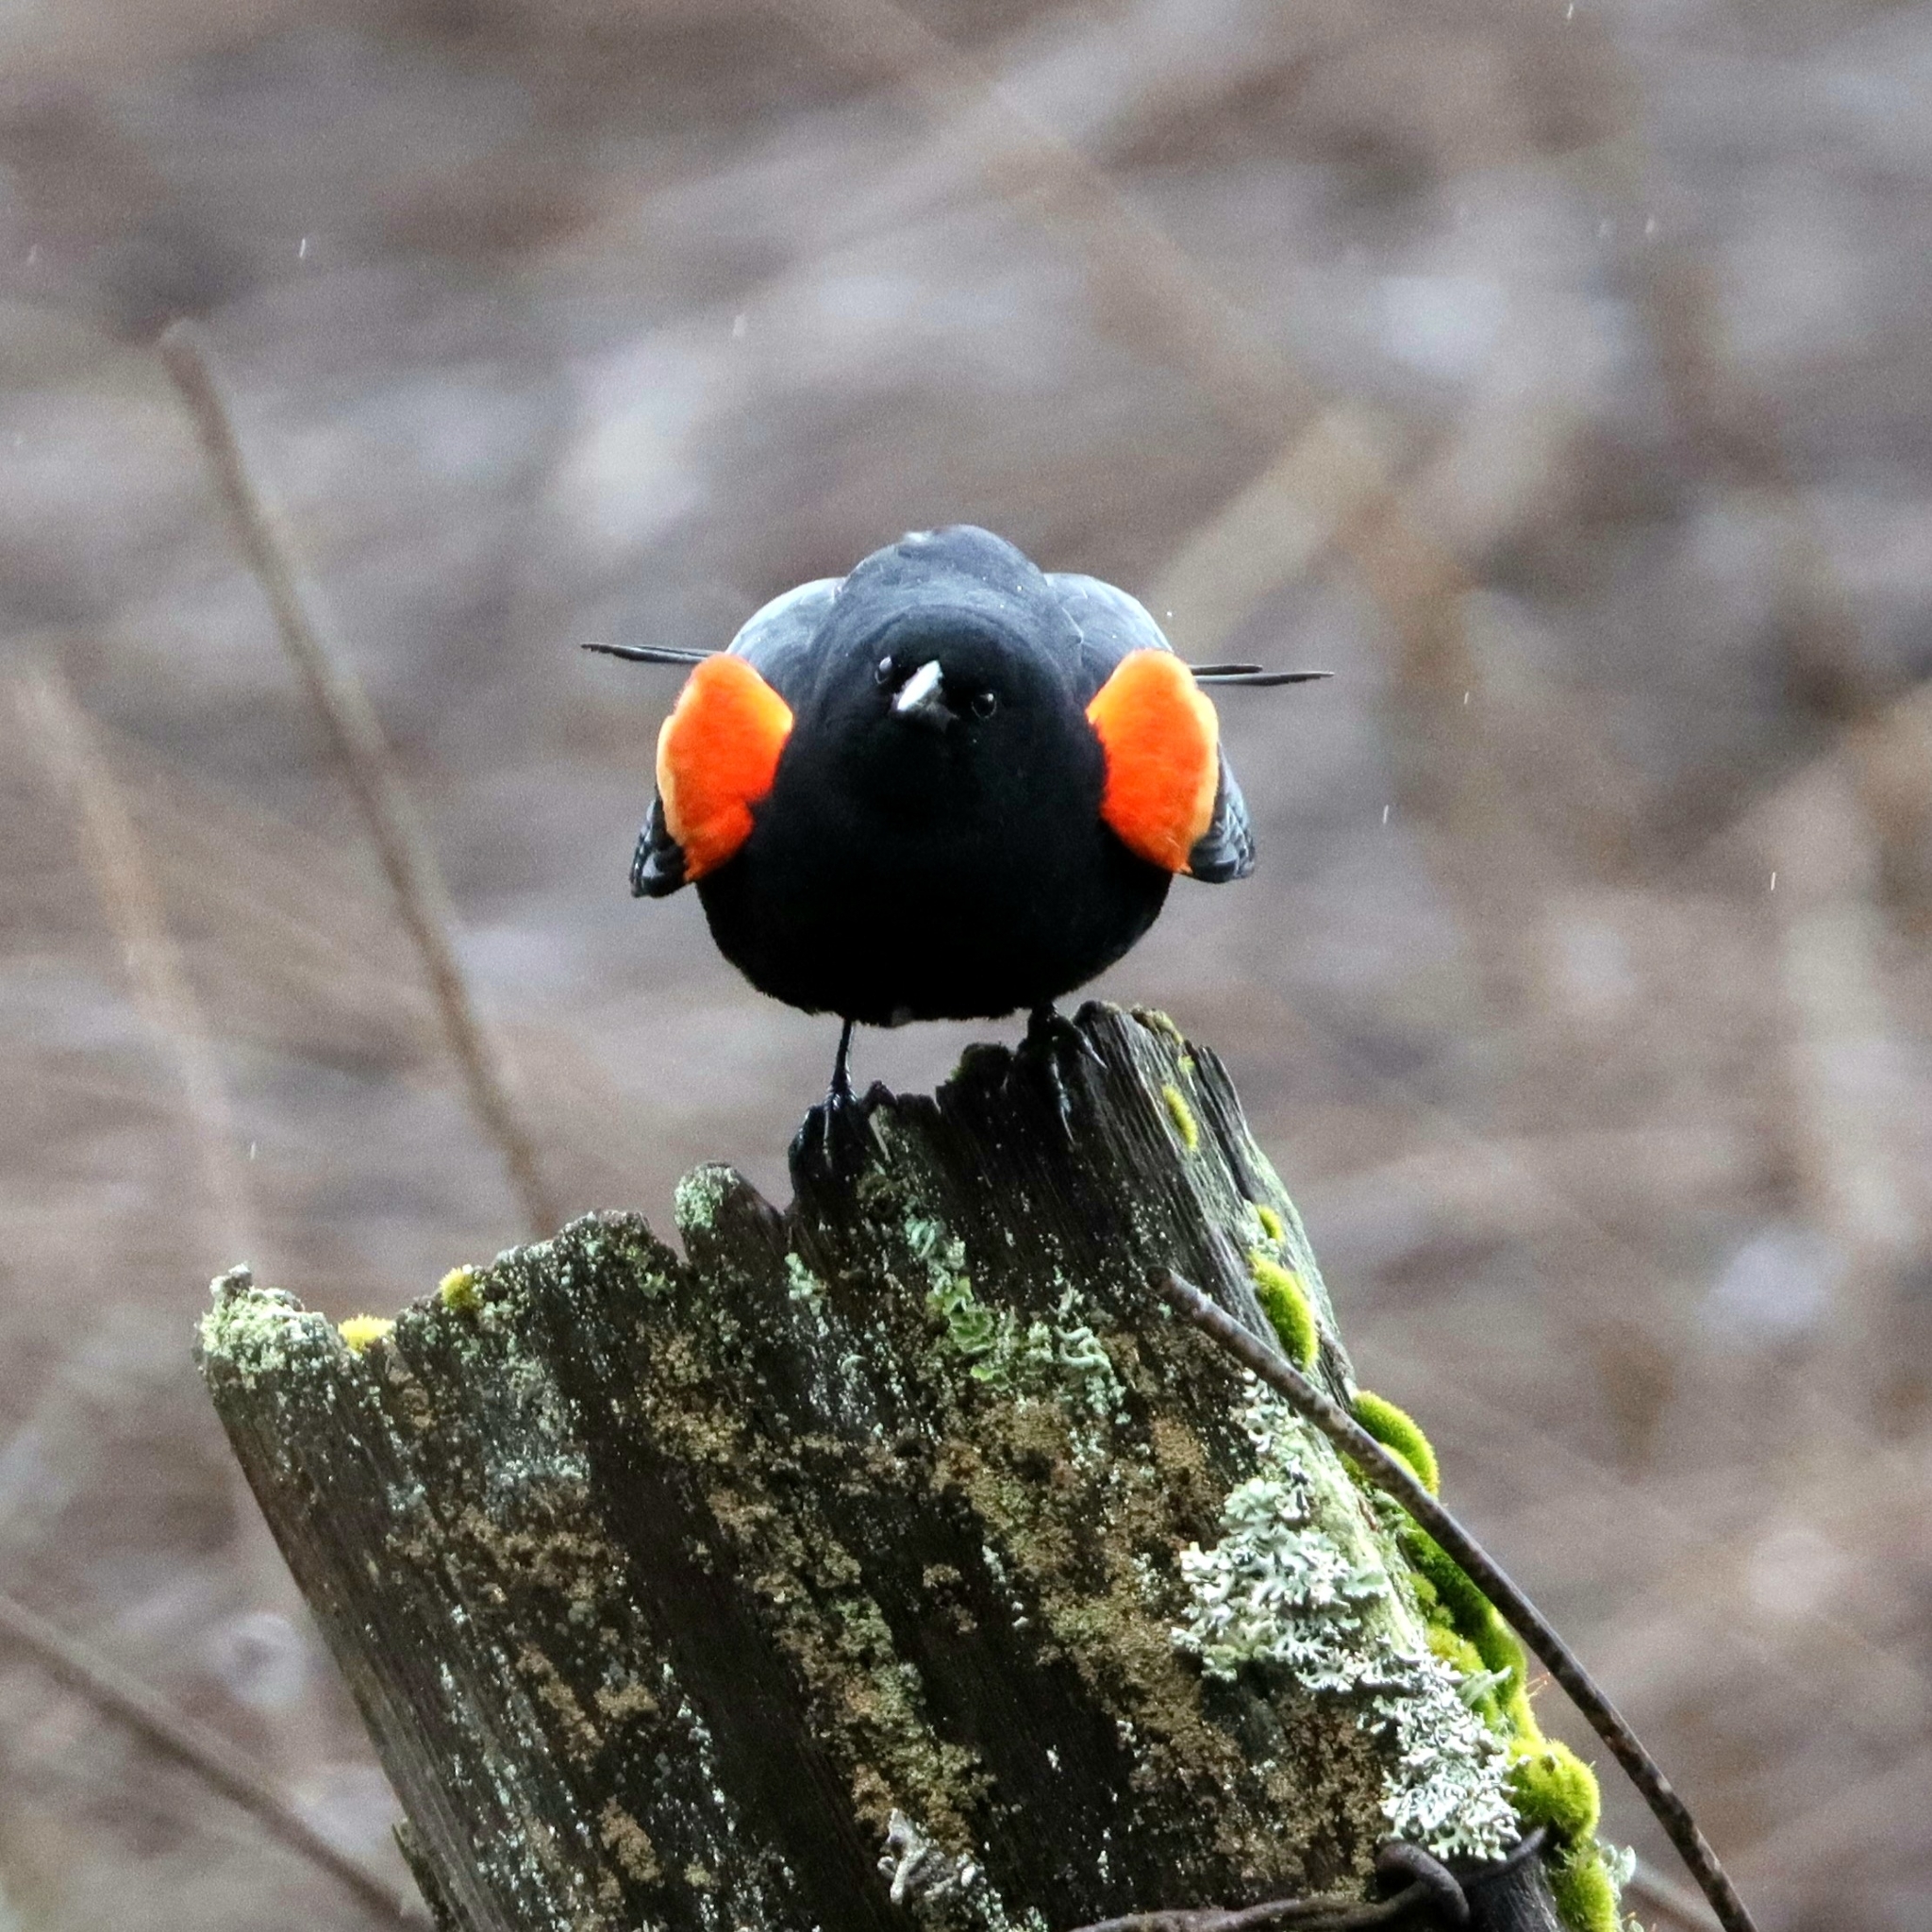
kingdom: Animalia
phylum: Chordata
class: Aves
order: Passeriformes
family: Icteridae
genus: Agelaius
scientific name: Agelaius phoeniceus
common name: Red-winged blackbird
